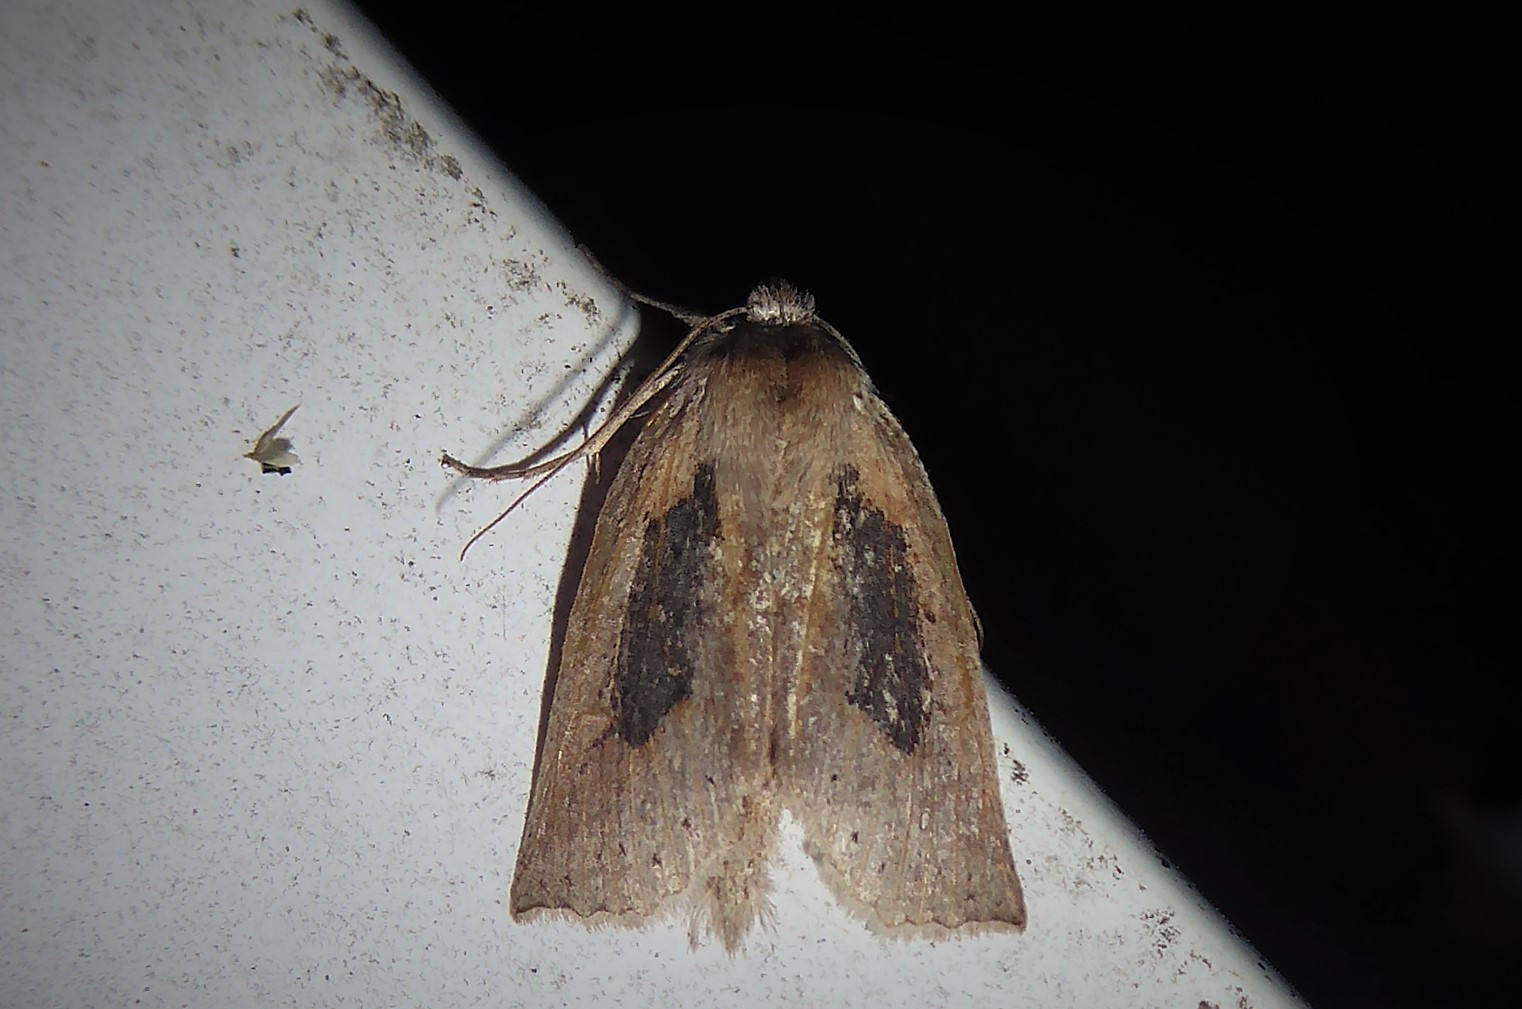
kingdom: Animalia
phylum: Arthropoda
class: Insecta
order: Lepidoptera
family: Geometridae
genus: Declana
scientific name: Declana leptomera
